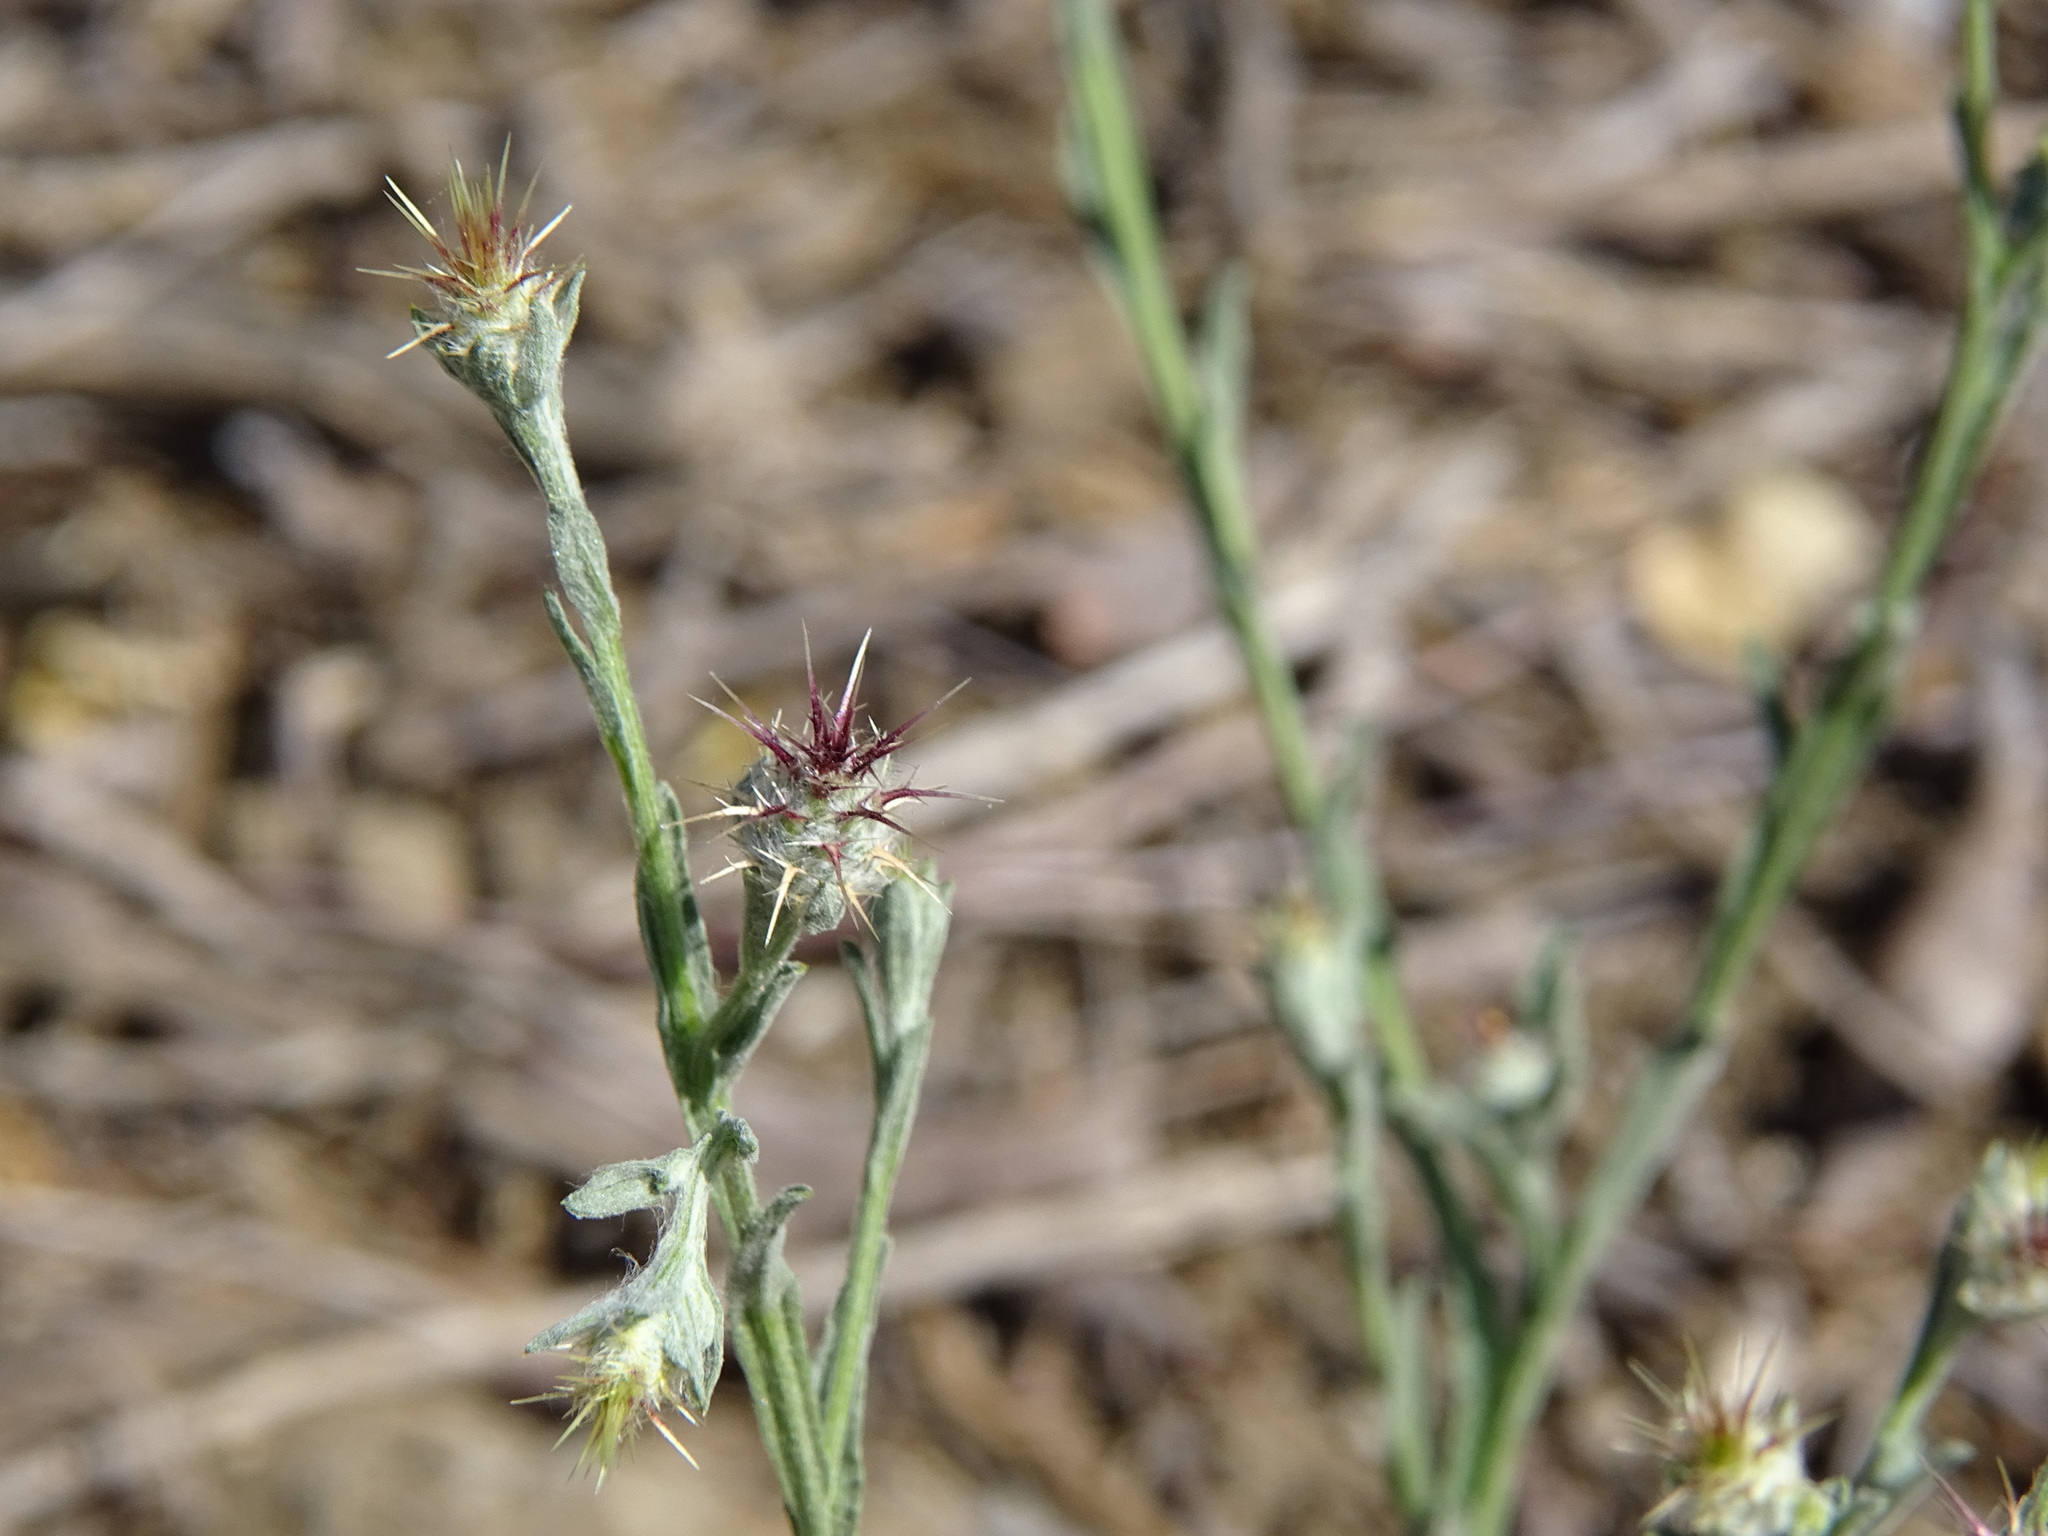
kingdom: Plantae
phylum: Tracheophyta
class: Magnoliopsida
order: Asterales
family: Asteraceae
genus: Centaurea
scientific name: Centaurea melitensis
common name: Maltese star-thistle
